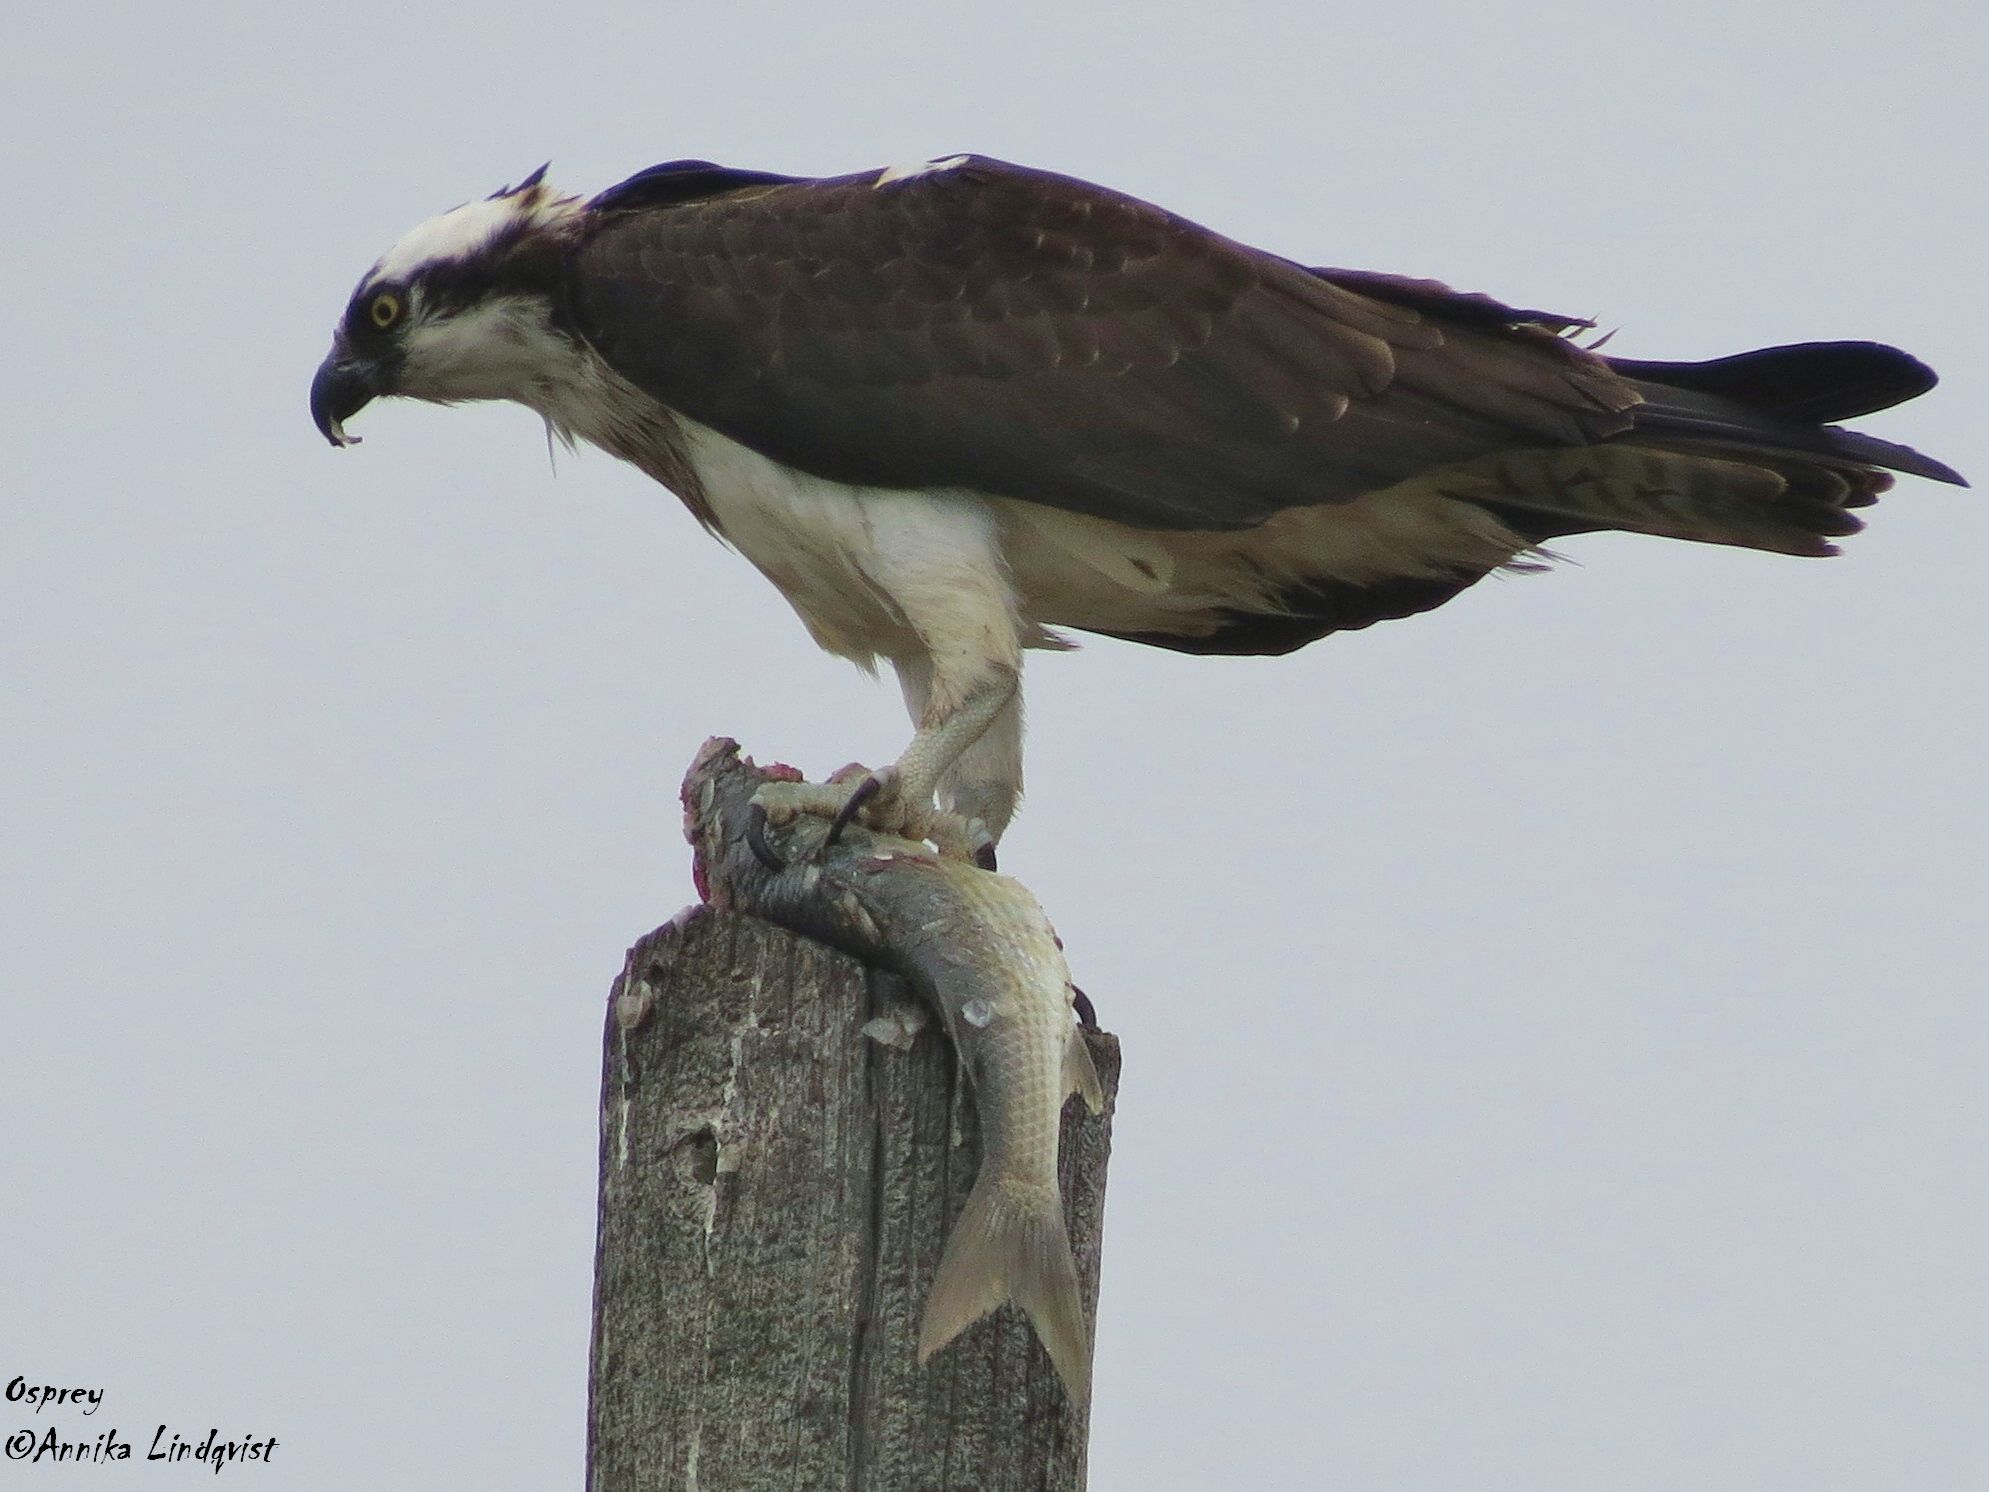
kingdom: Animalia
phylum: Chordata
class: Aves
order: Accipitriformes
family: Pandionidae
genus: Pandion
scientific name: Pandion haliaetus
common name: Osprey
